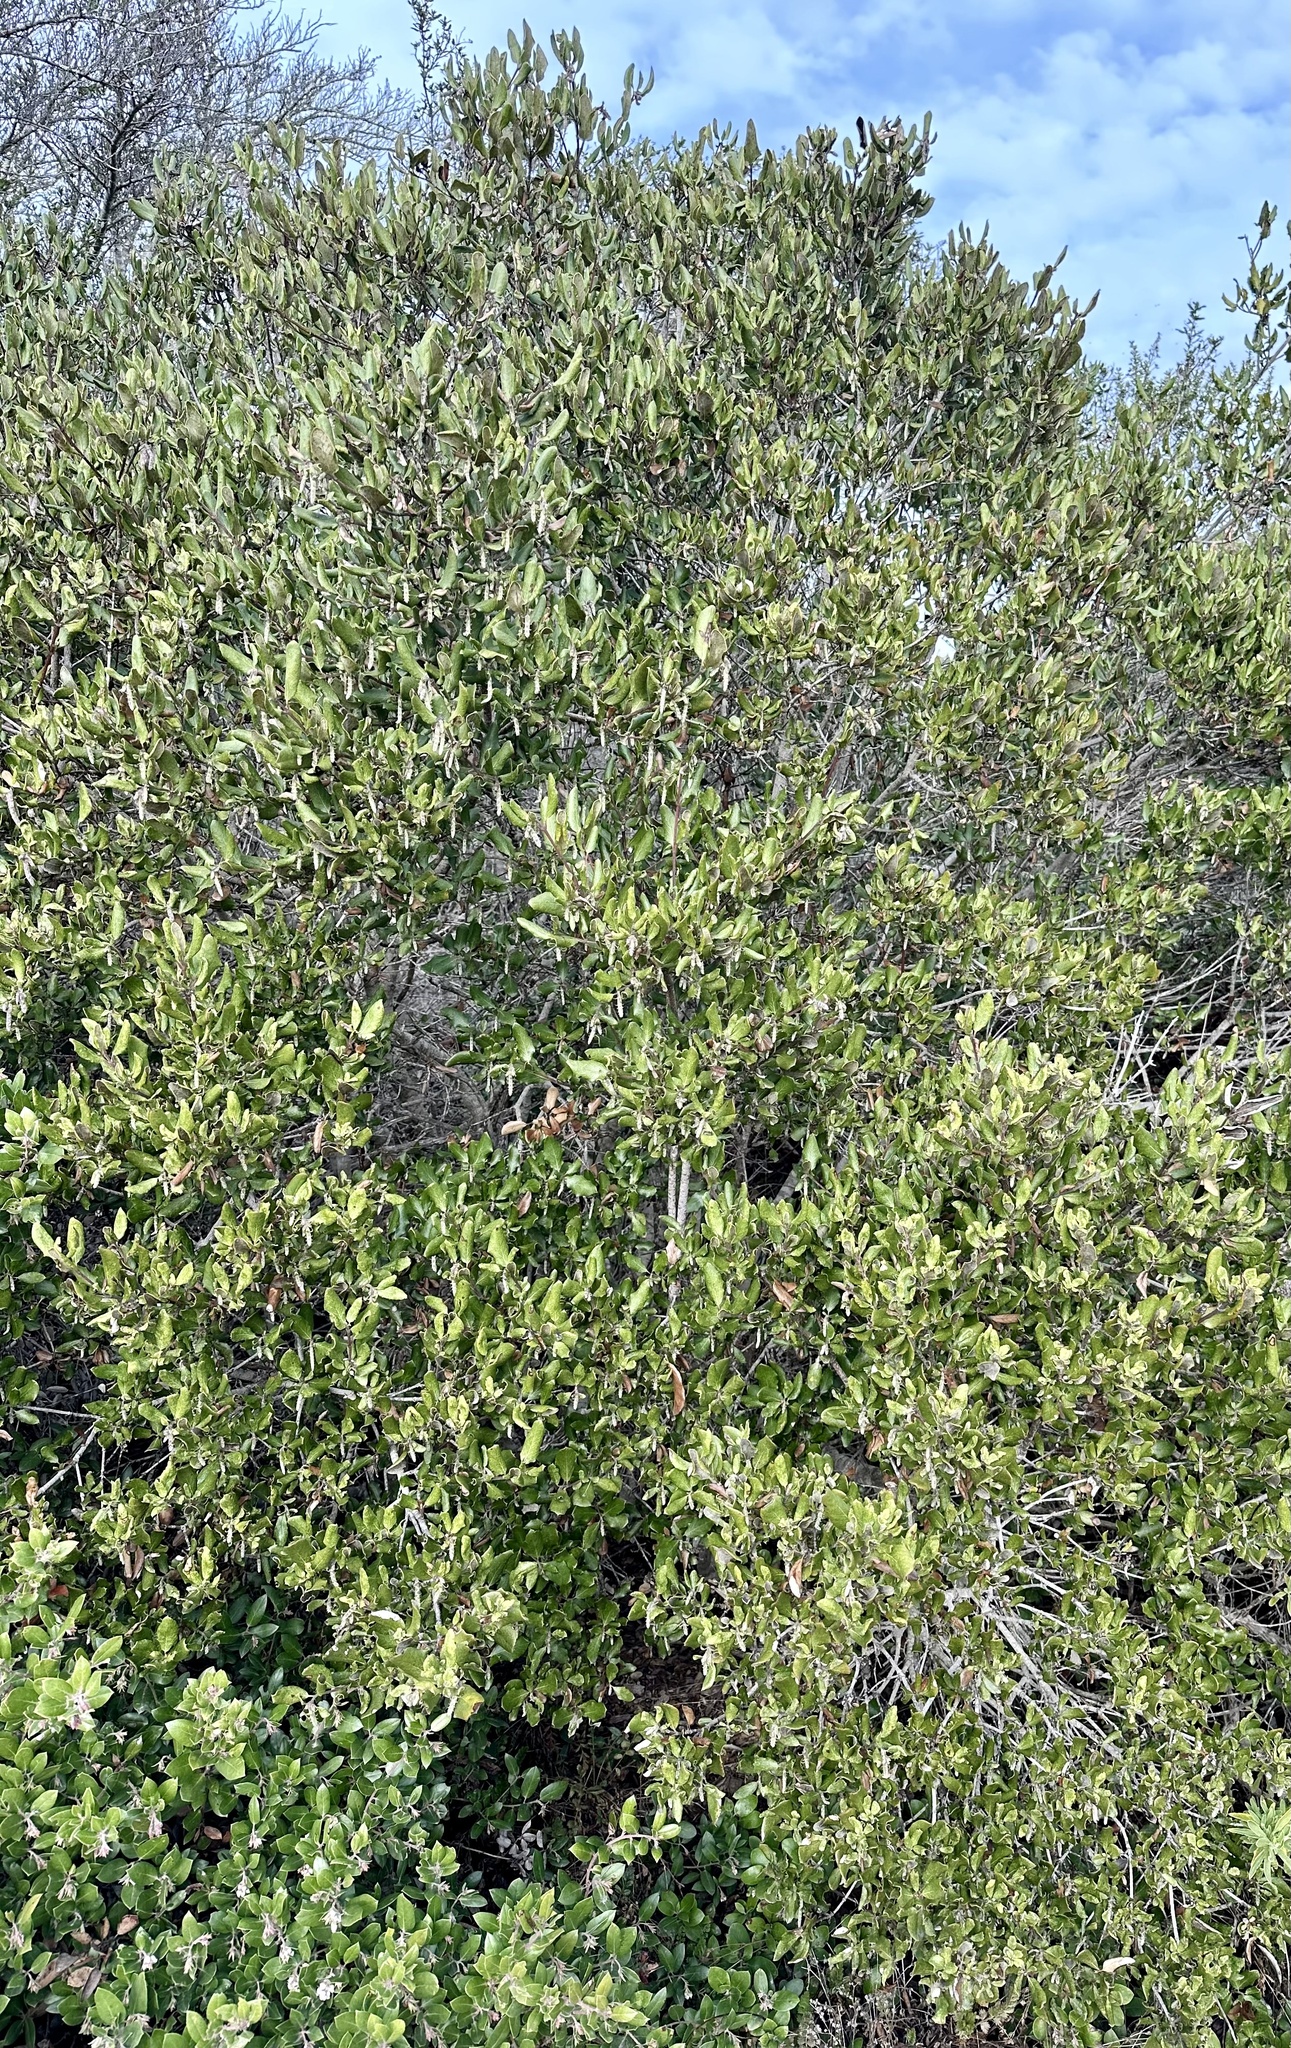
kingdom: Plantae
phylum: Tracheophyta
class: Magnoliopsida
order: Garryales
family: Garryaceae
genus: Garrya
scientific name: Garrya elliptica
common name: Silk-tassel
